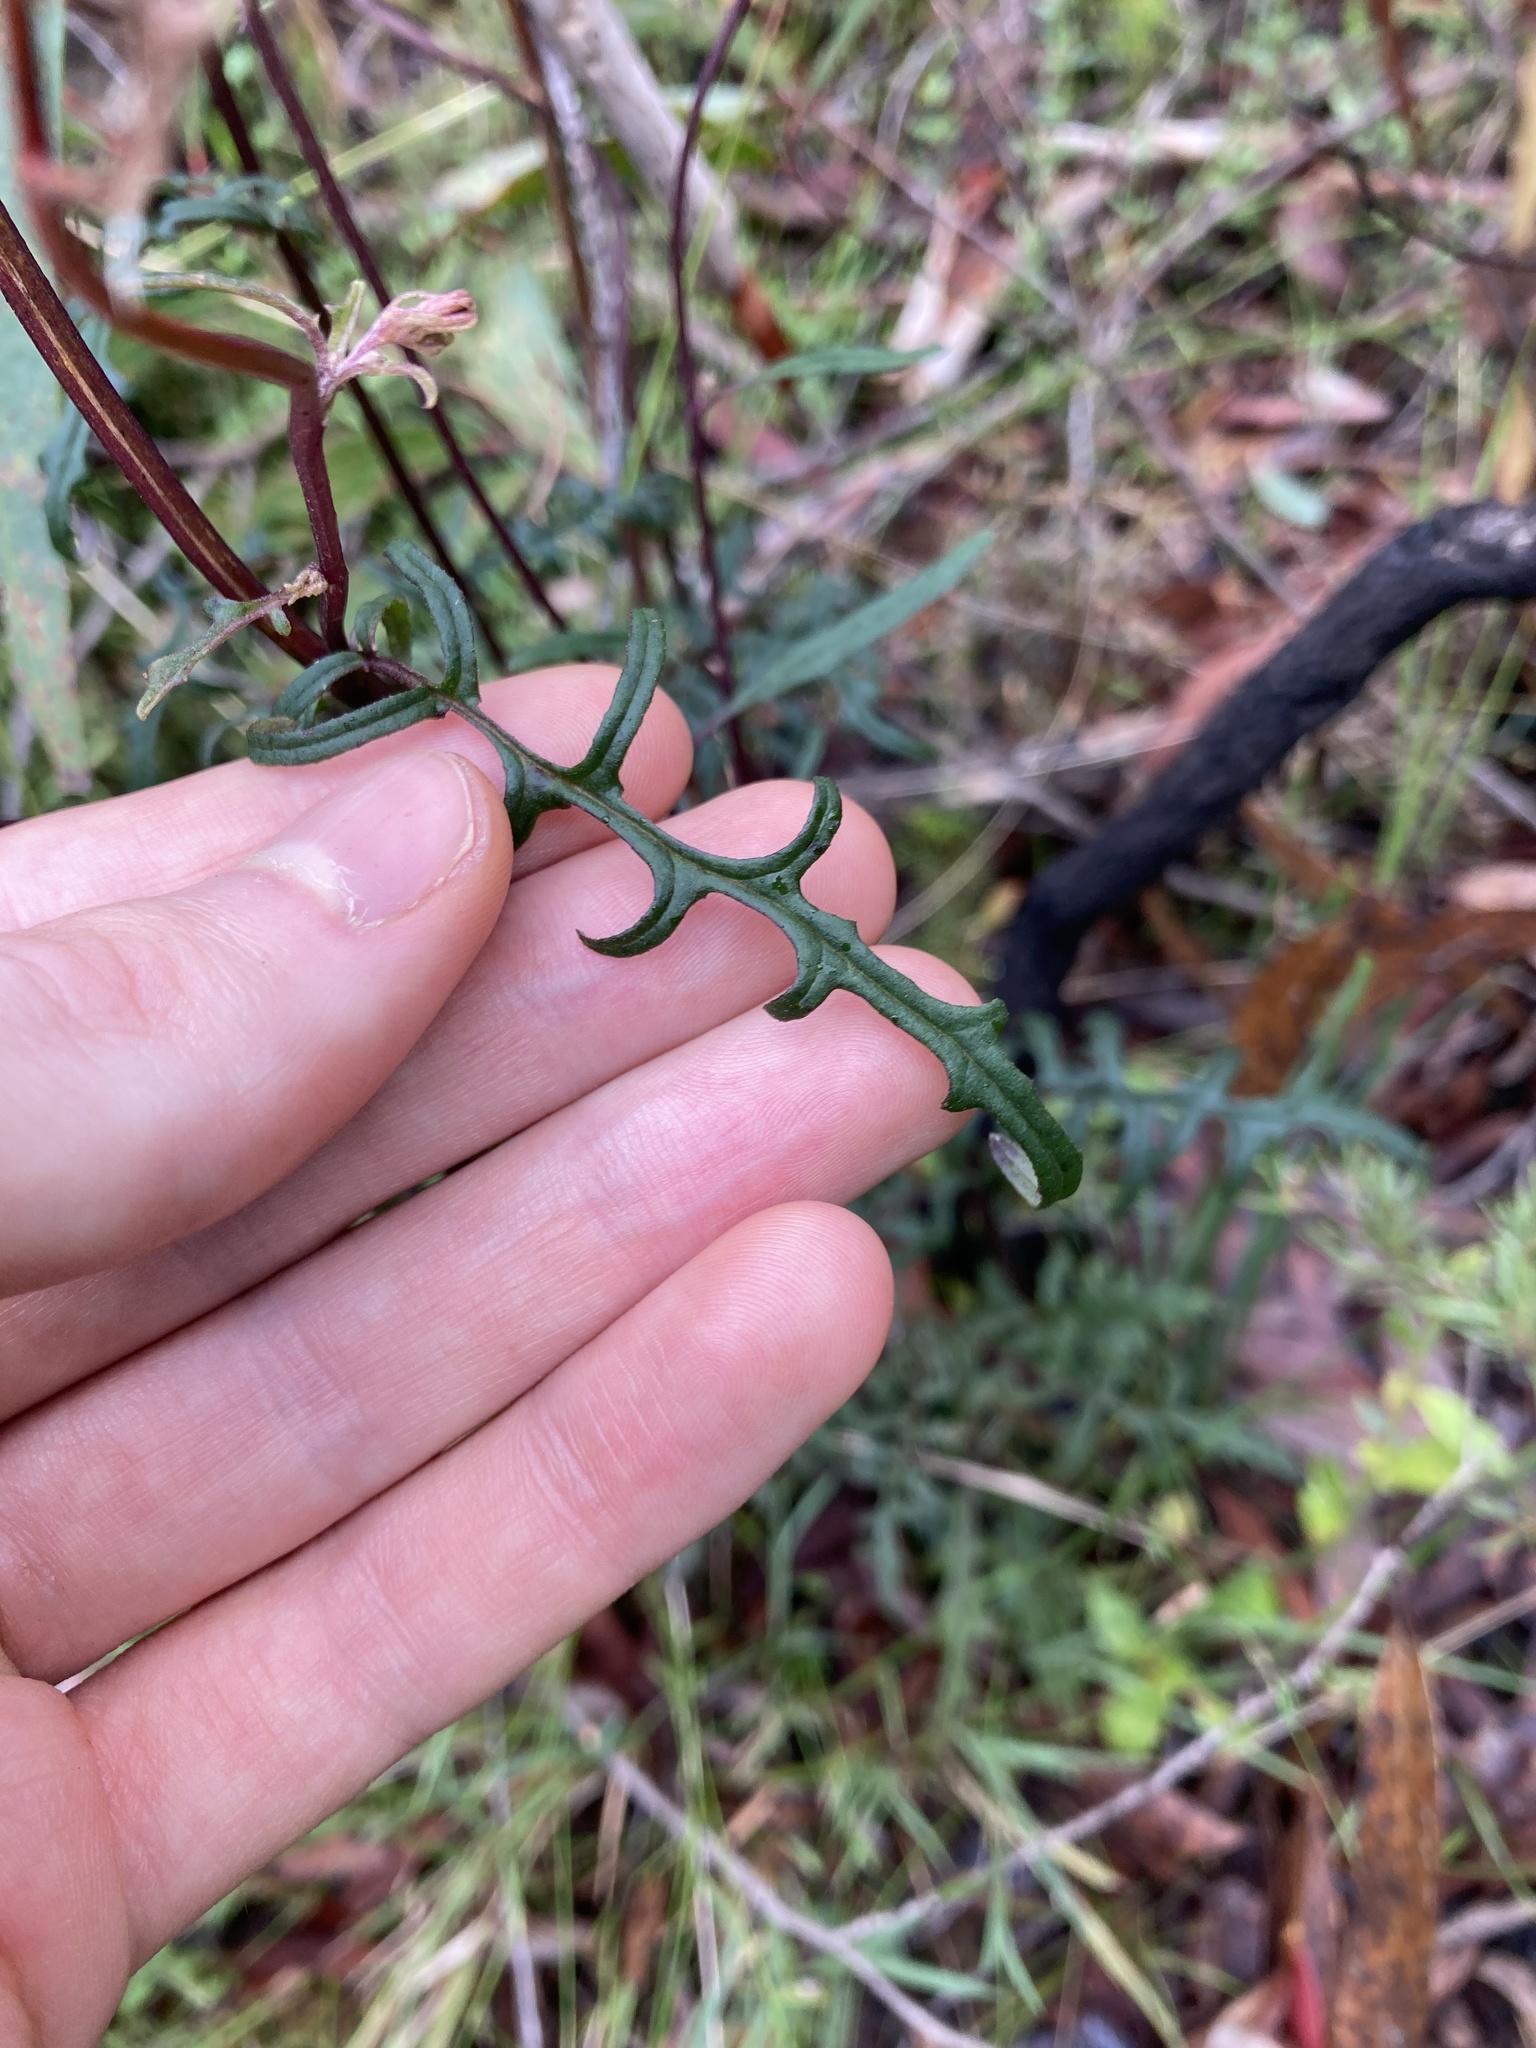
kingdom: Plantae
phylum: Tracheophyta
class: Magnoliopsida
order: Asterales
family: Asteraceae
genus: Arrhenechthites
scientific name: Arrhenechthites mixtus
